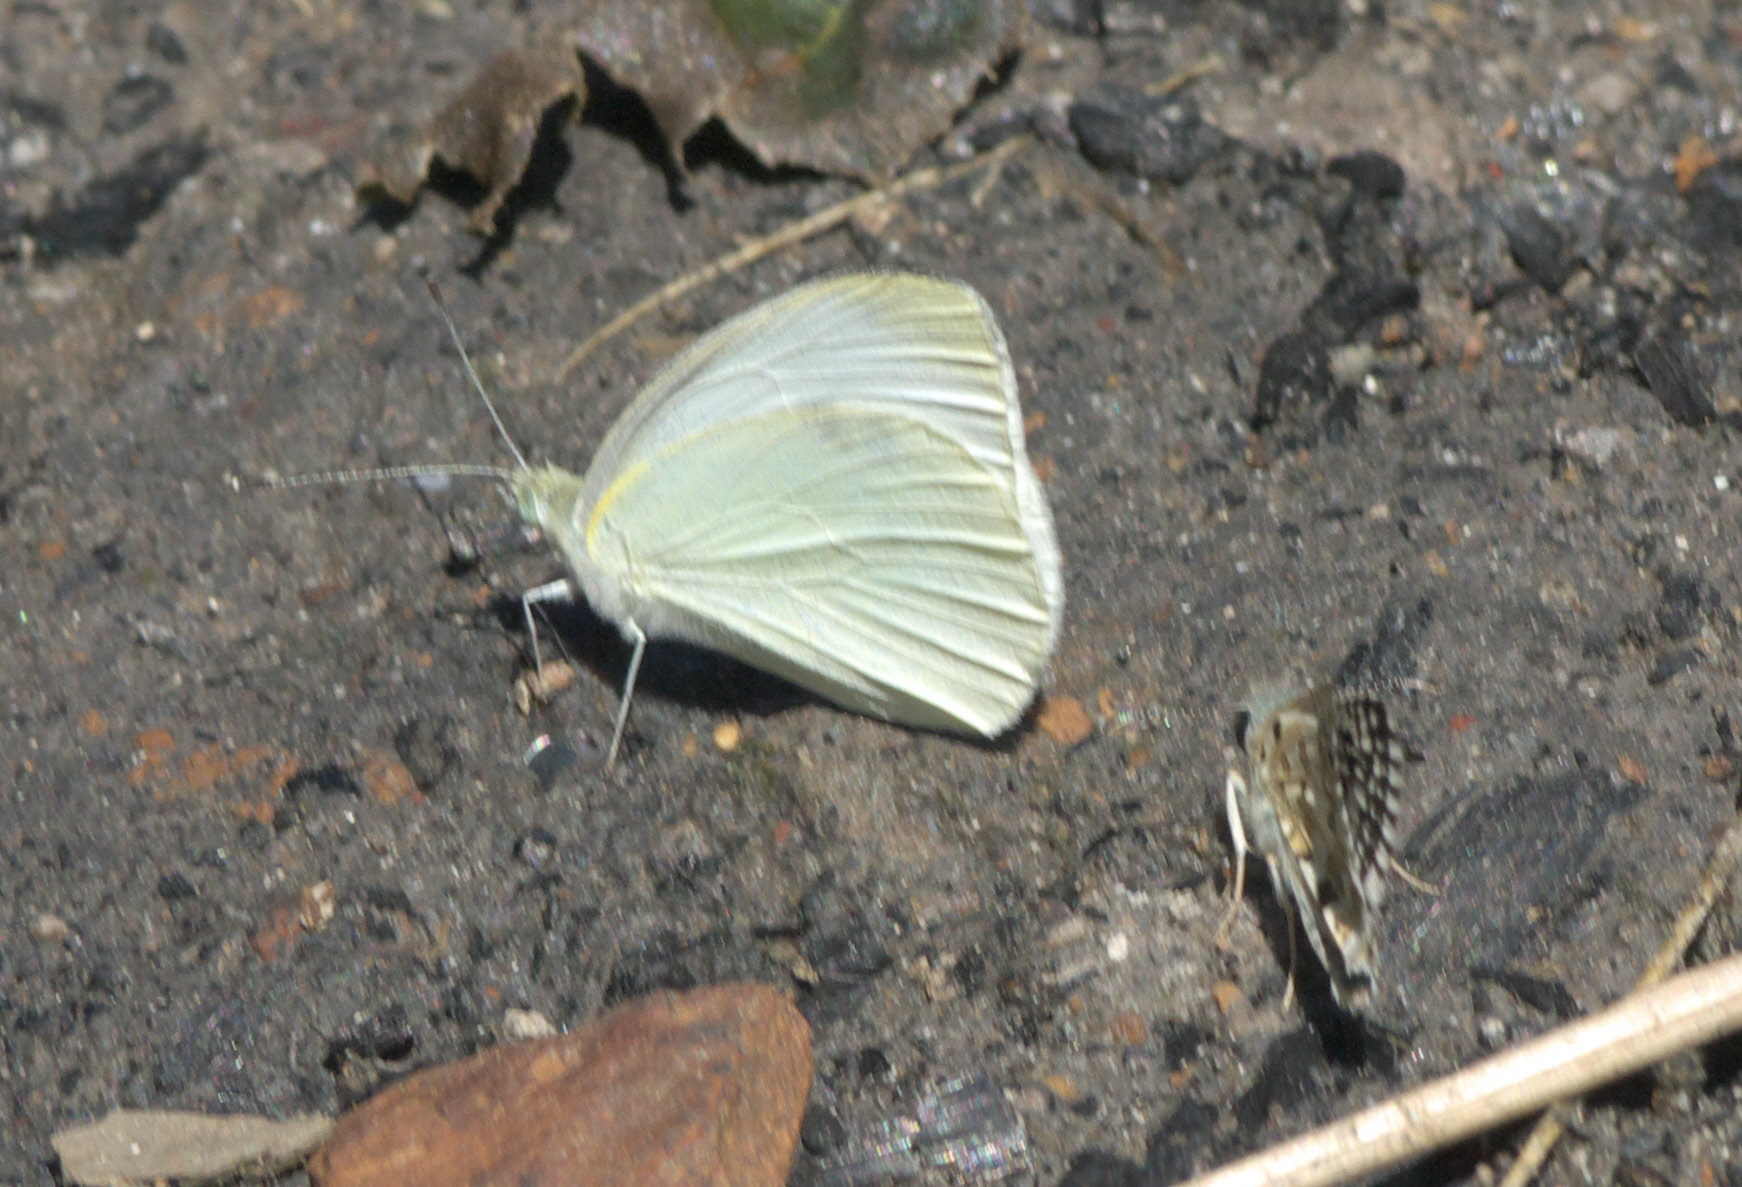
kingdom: Animalia
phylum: Arthropoda
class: Insecta
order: Lepidoptera
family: Pieridae
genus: Pieris
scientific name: Pieris rapae
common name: Small white
